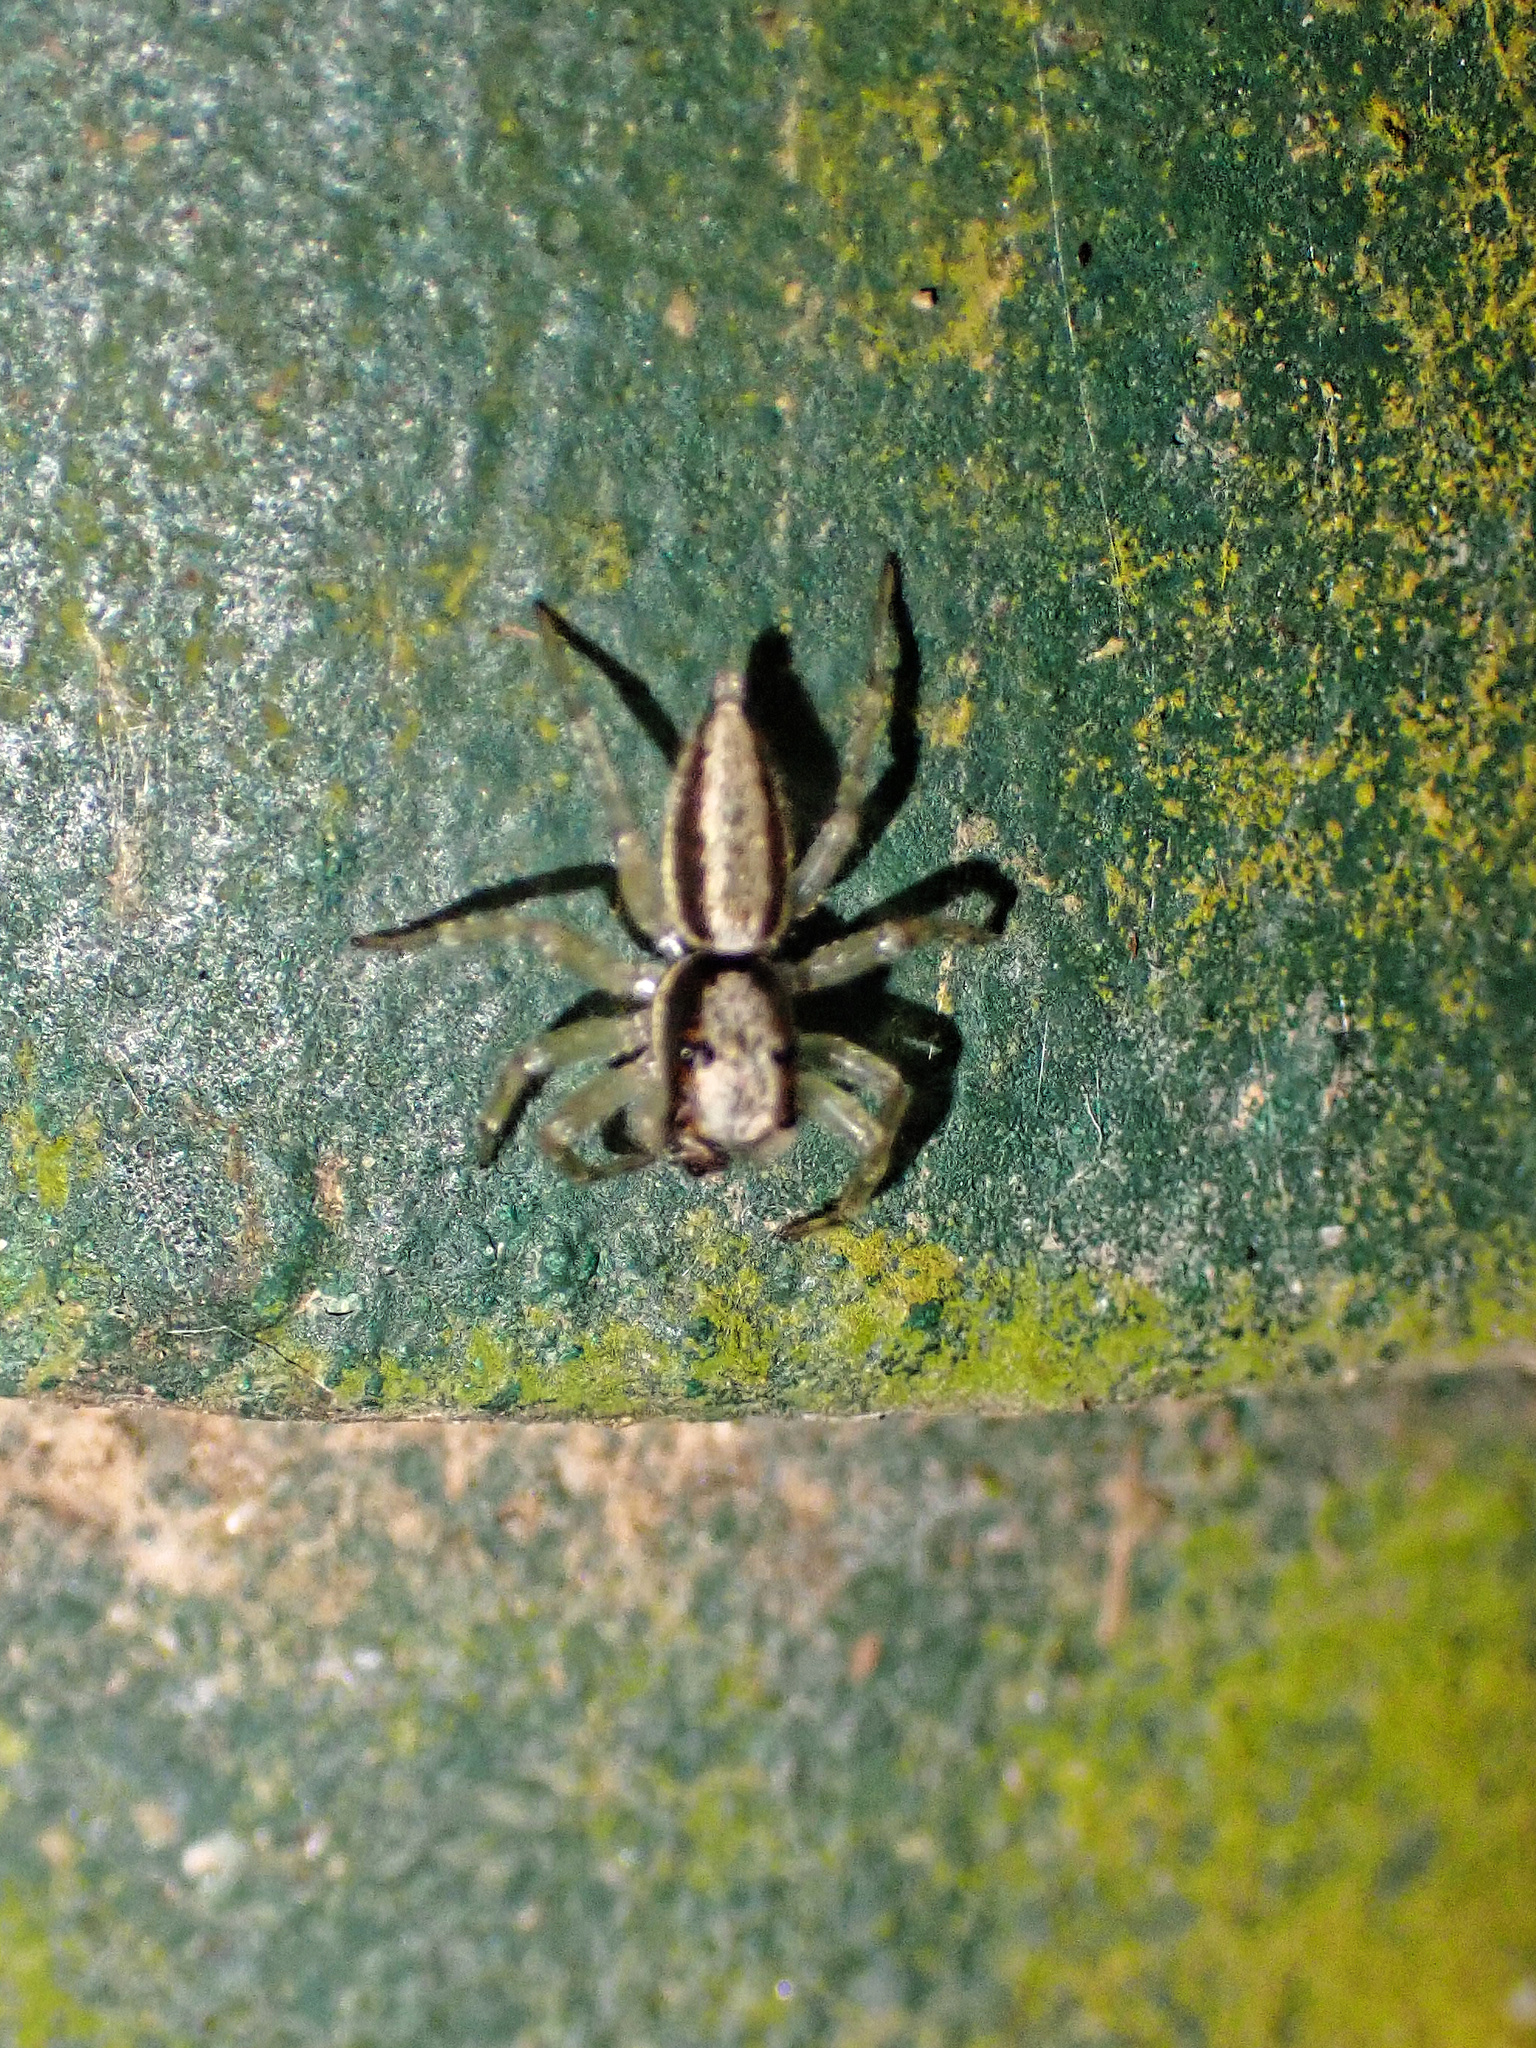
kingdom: Animalia
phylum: Arthropoda
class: Arachnida
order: Araneae
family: Salticidae
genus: Zenodorus
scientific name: Zenodorus swiftorum
